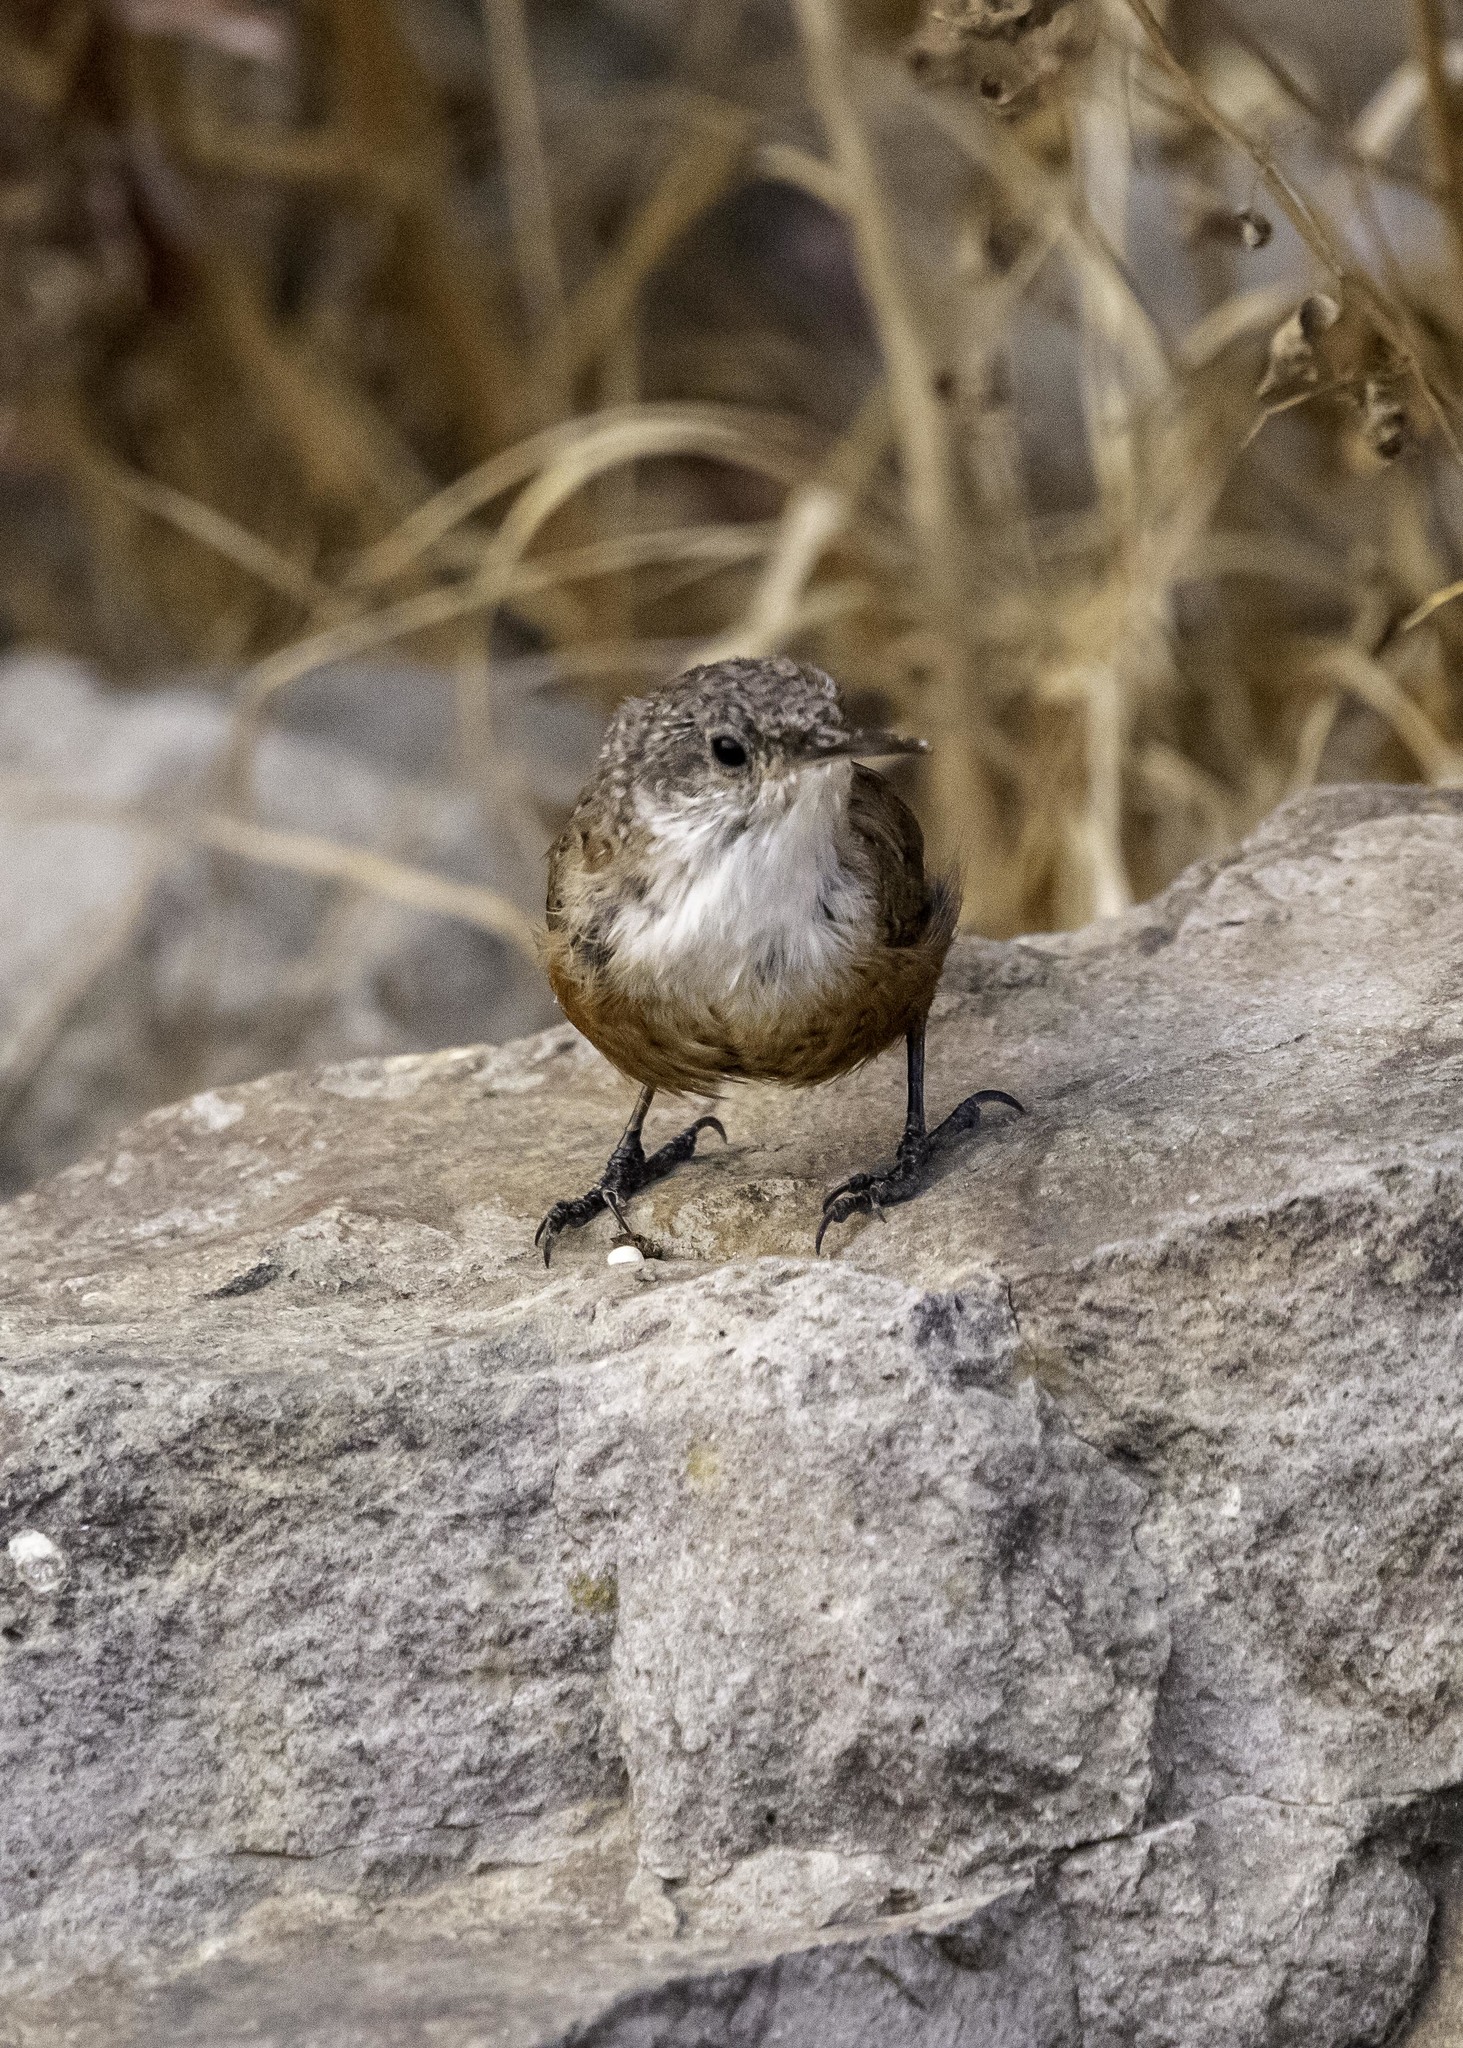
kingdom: Animalia
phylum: Chordata
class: Aves
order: Passeriformes
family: Troglodytidae
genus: Catherpes
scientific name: Catherpes mexicanus
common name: Canyon wren
